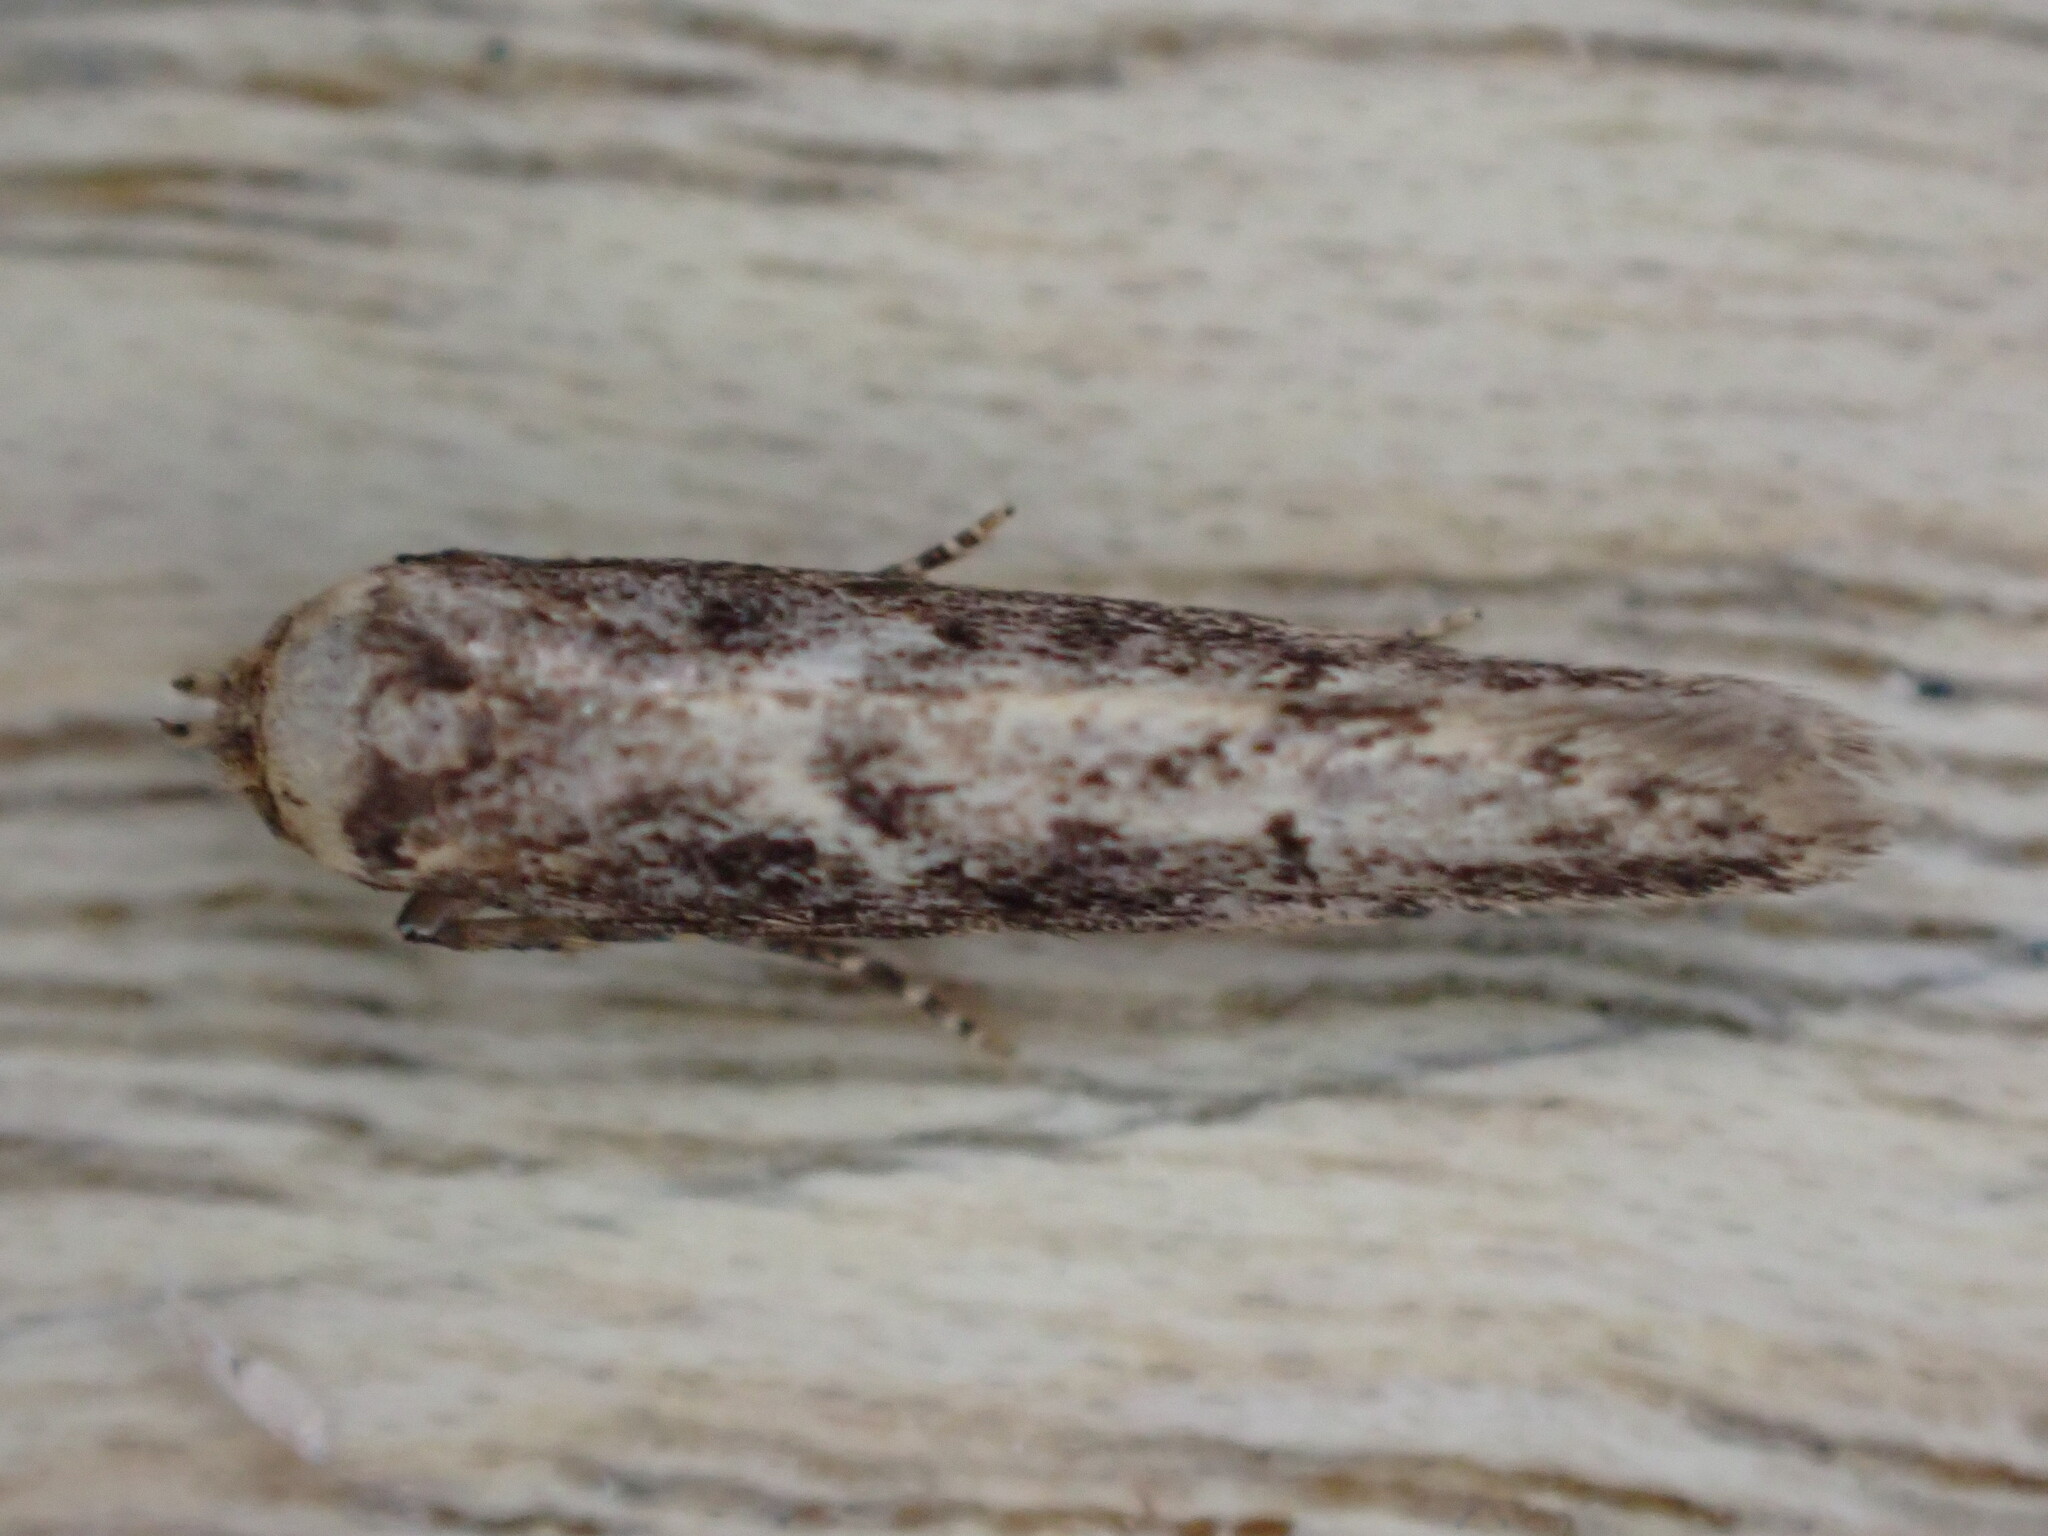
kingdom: Animalia
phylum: Arthropoda
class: Insecta
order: Lepidoptera
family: Blastobasidae
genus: Blastobasis
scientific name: Blastobasis adustella
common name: Dingy dowd
